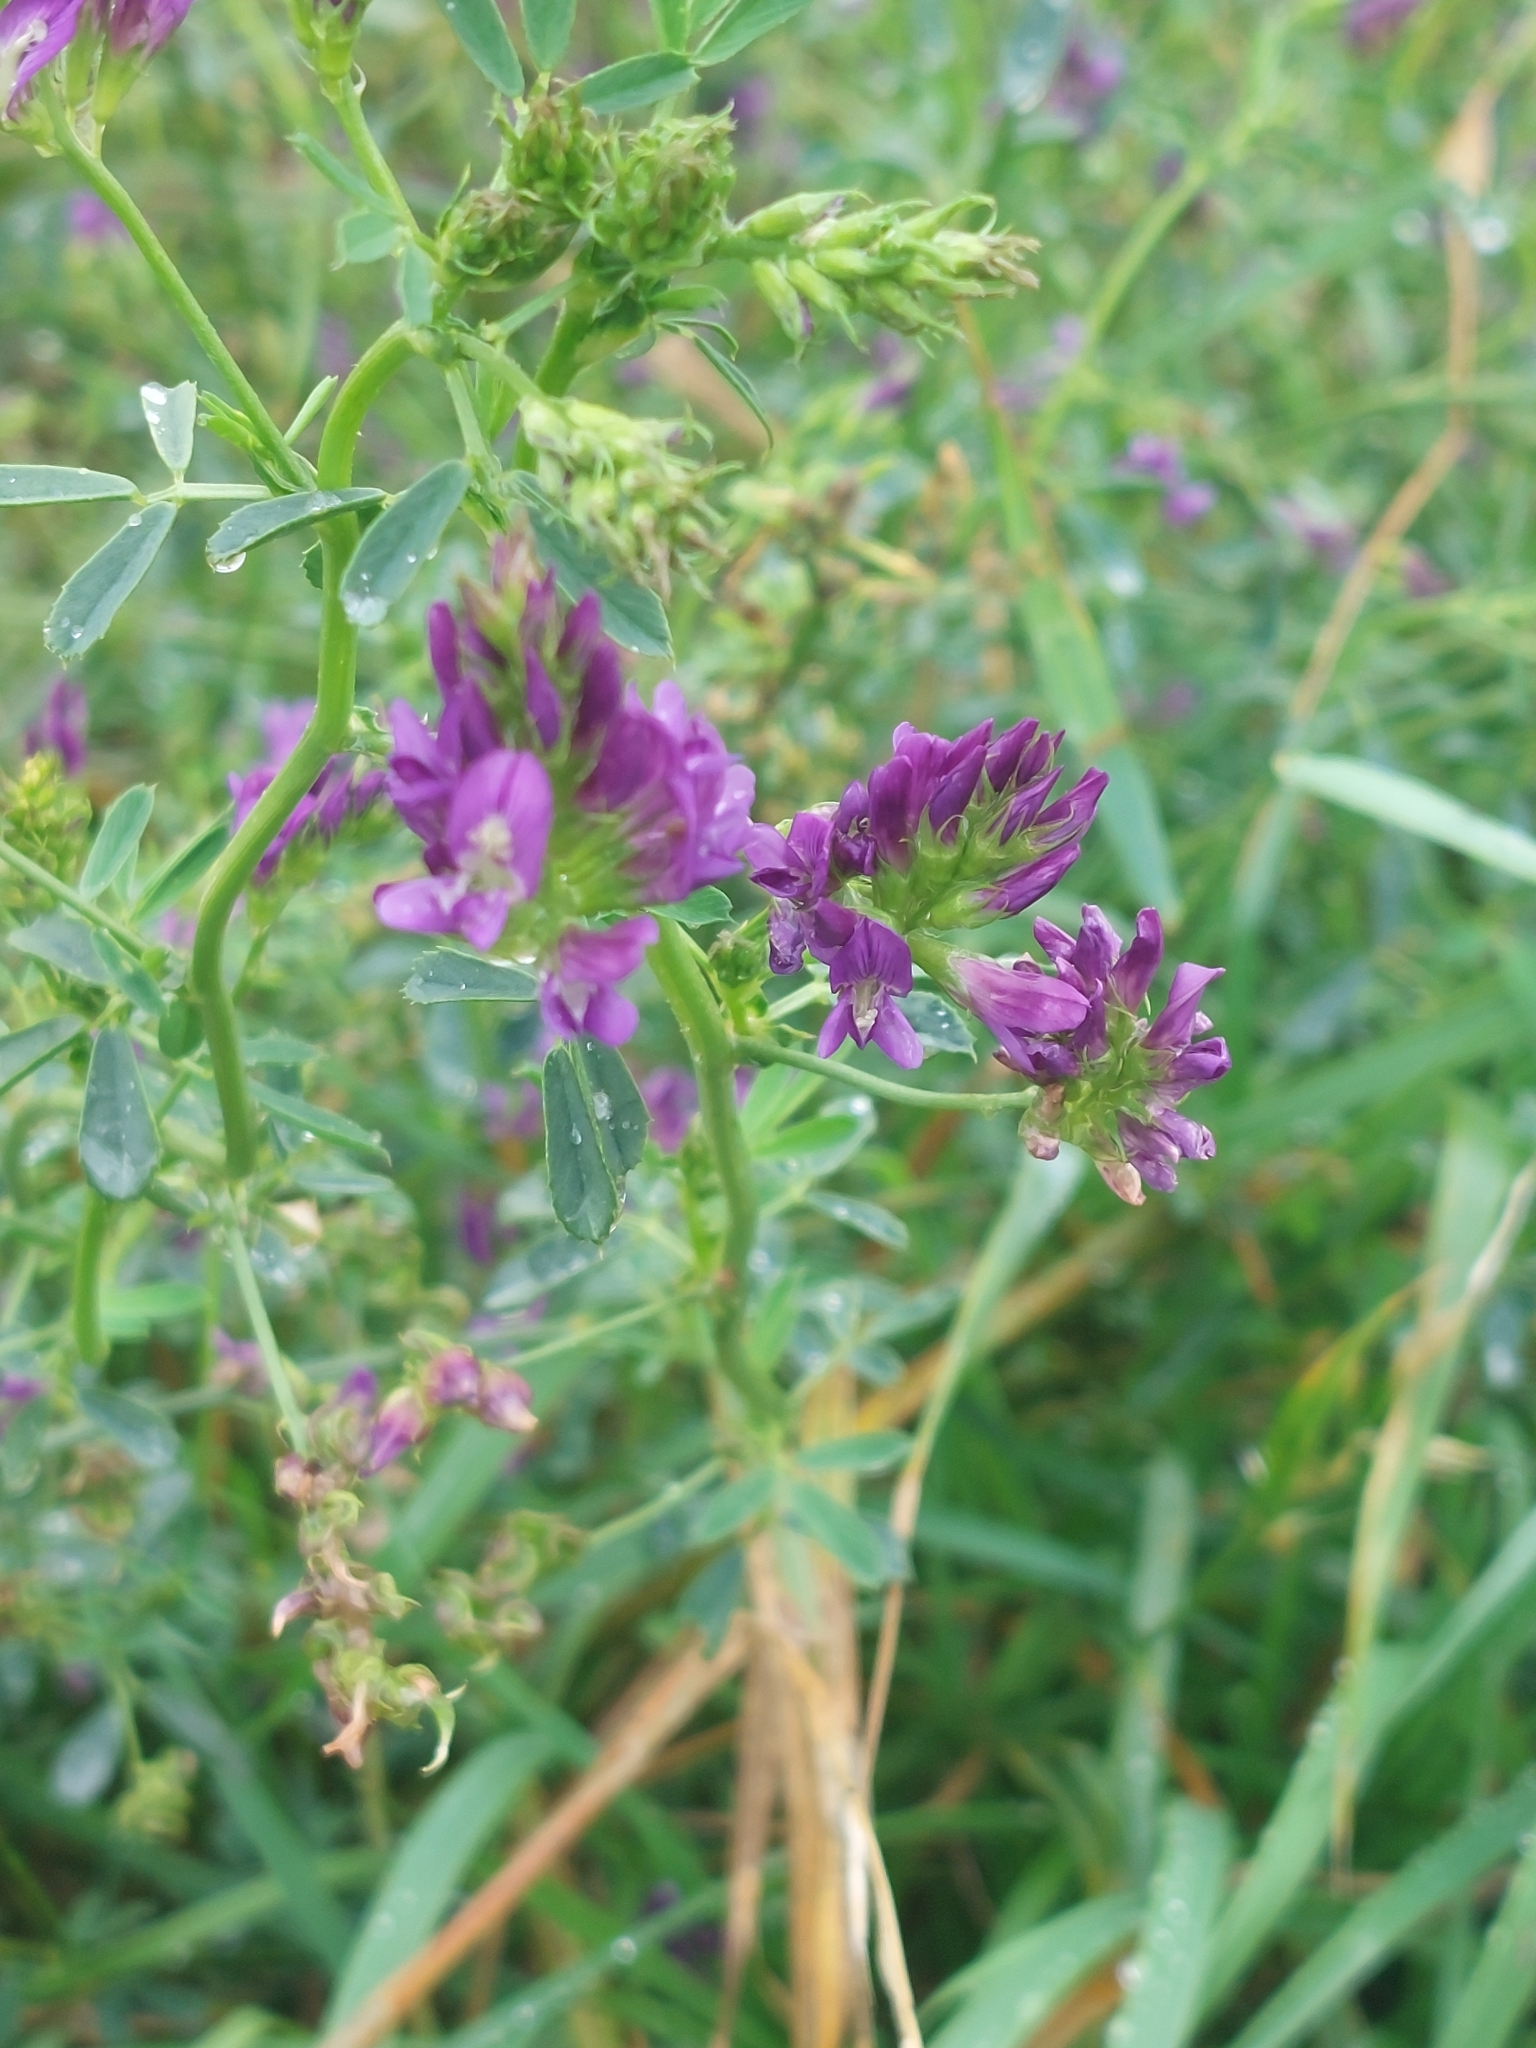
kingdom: Plantae
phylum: Tracheophyta
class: Magnoliopsida
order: Fabales
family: Fabaceae
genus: Medicago
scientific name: Medicago sativa
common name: Alfalfa
